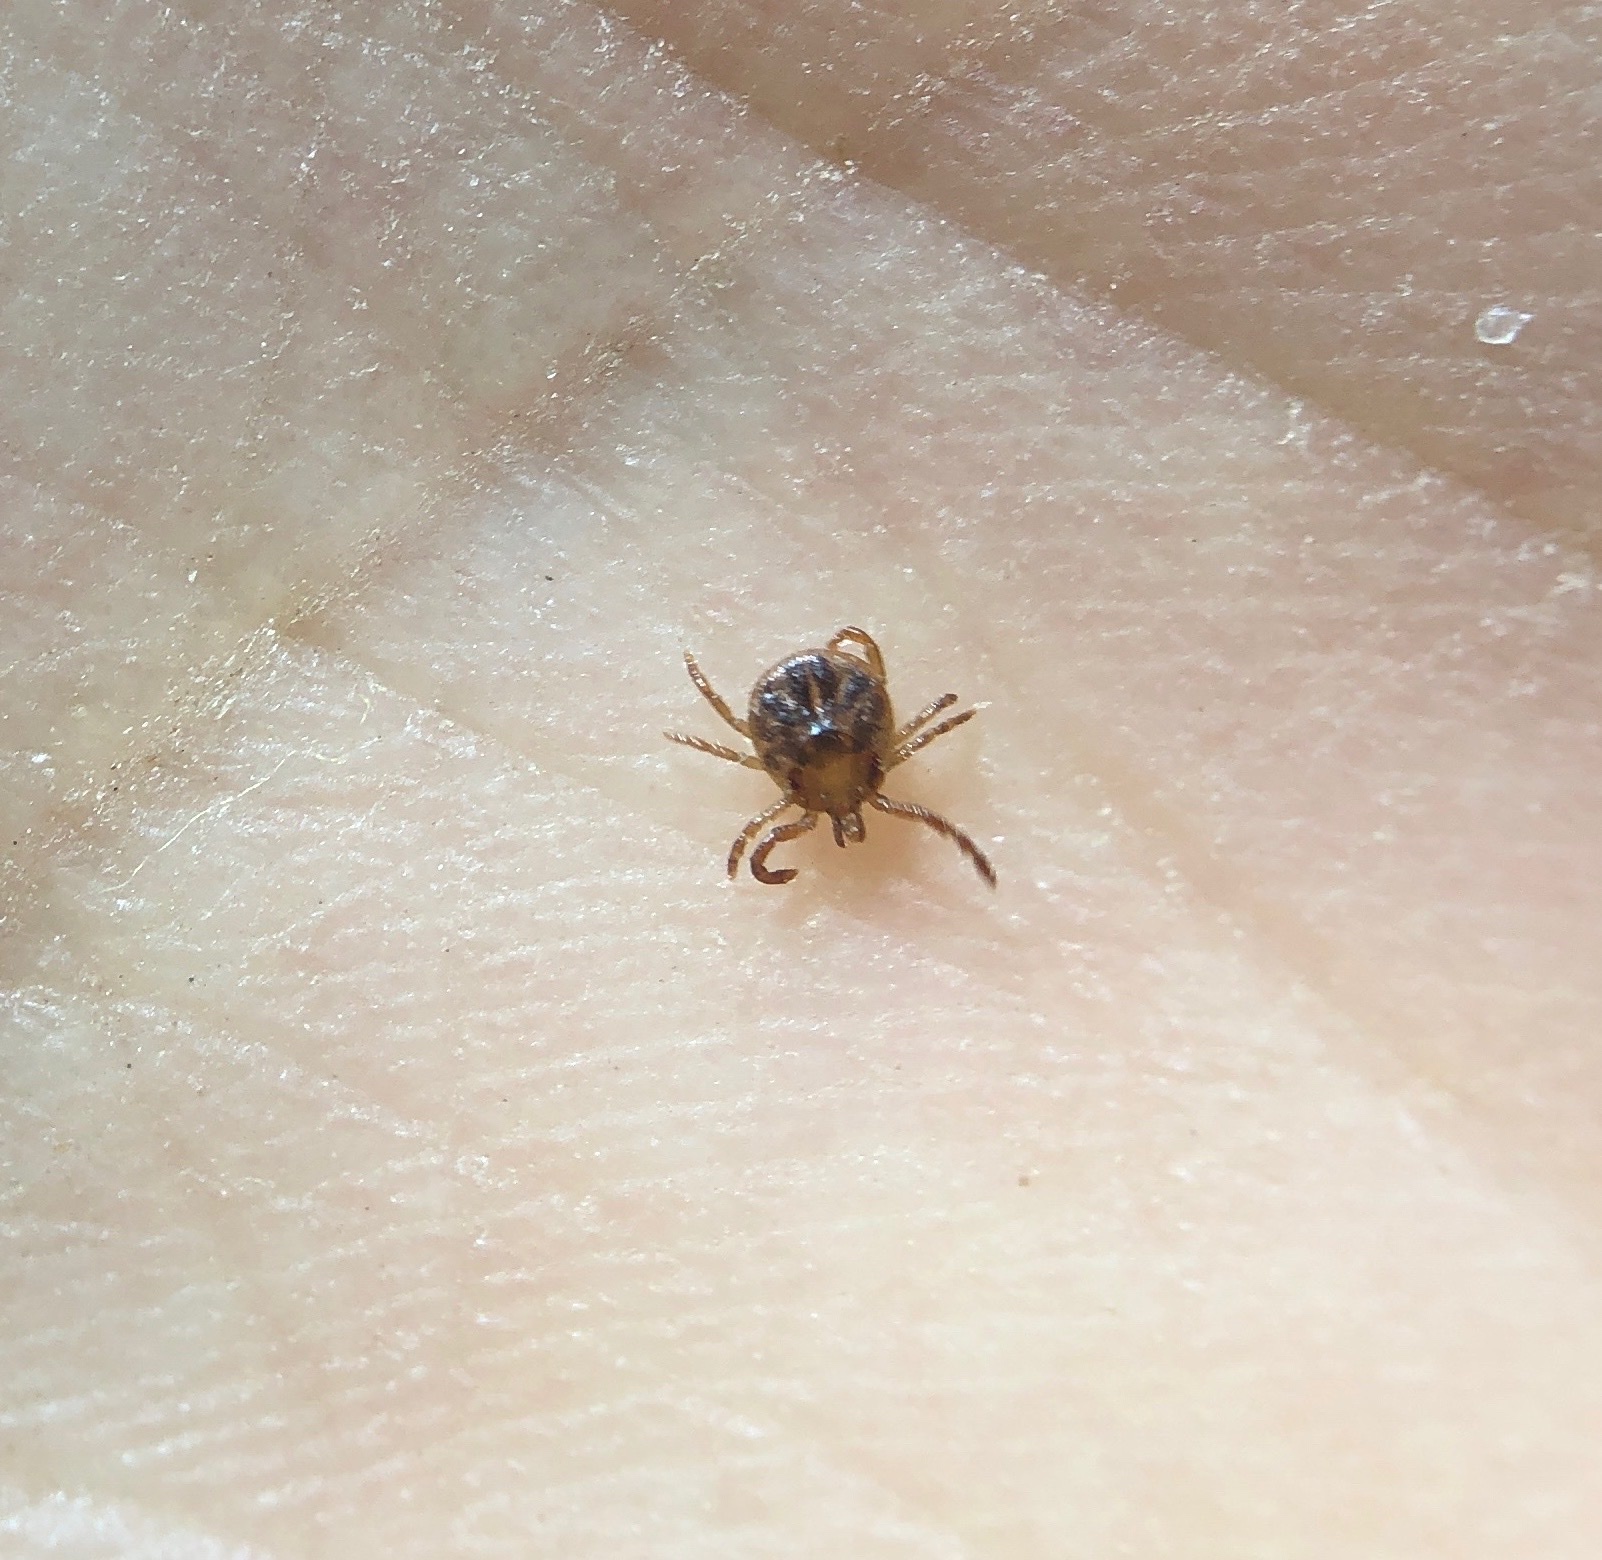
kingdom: Animalia
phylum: Arthropoda
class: Arachnida
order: Ixodida
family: Ixodidae
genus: Amblyomma
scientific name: Amblyomma americanum
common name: Lone star tick
